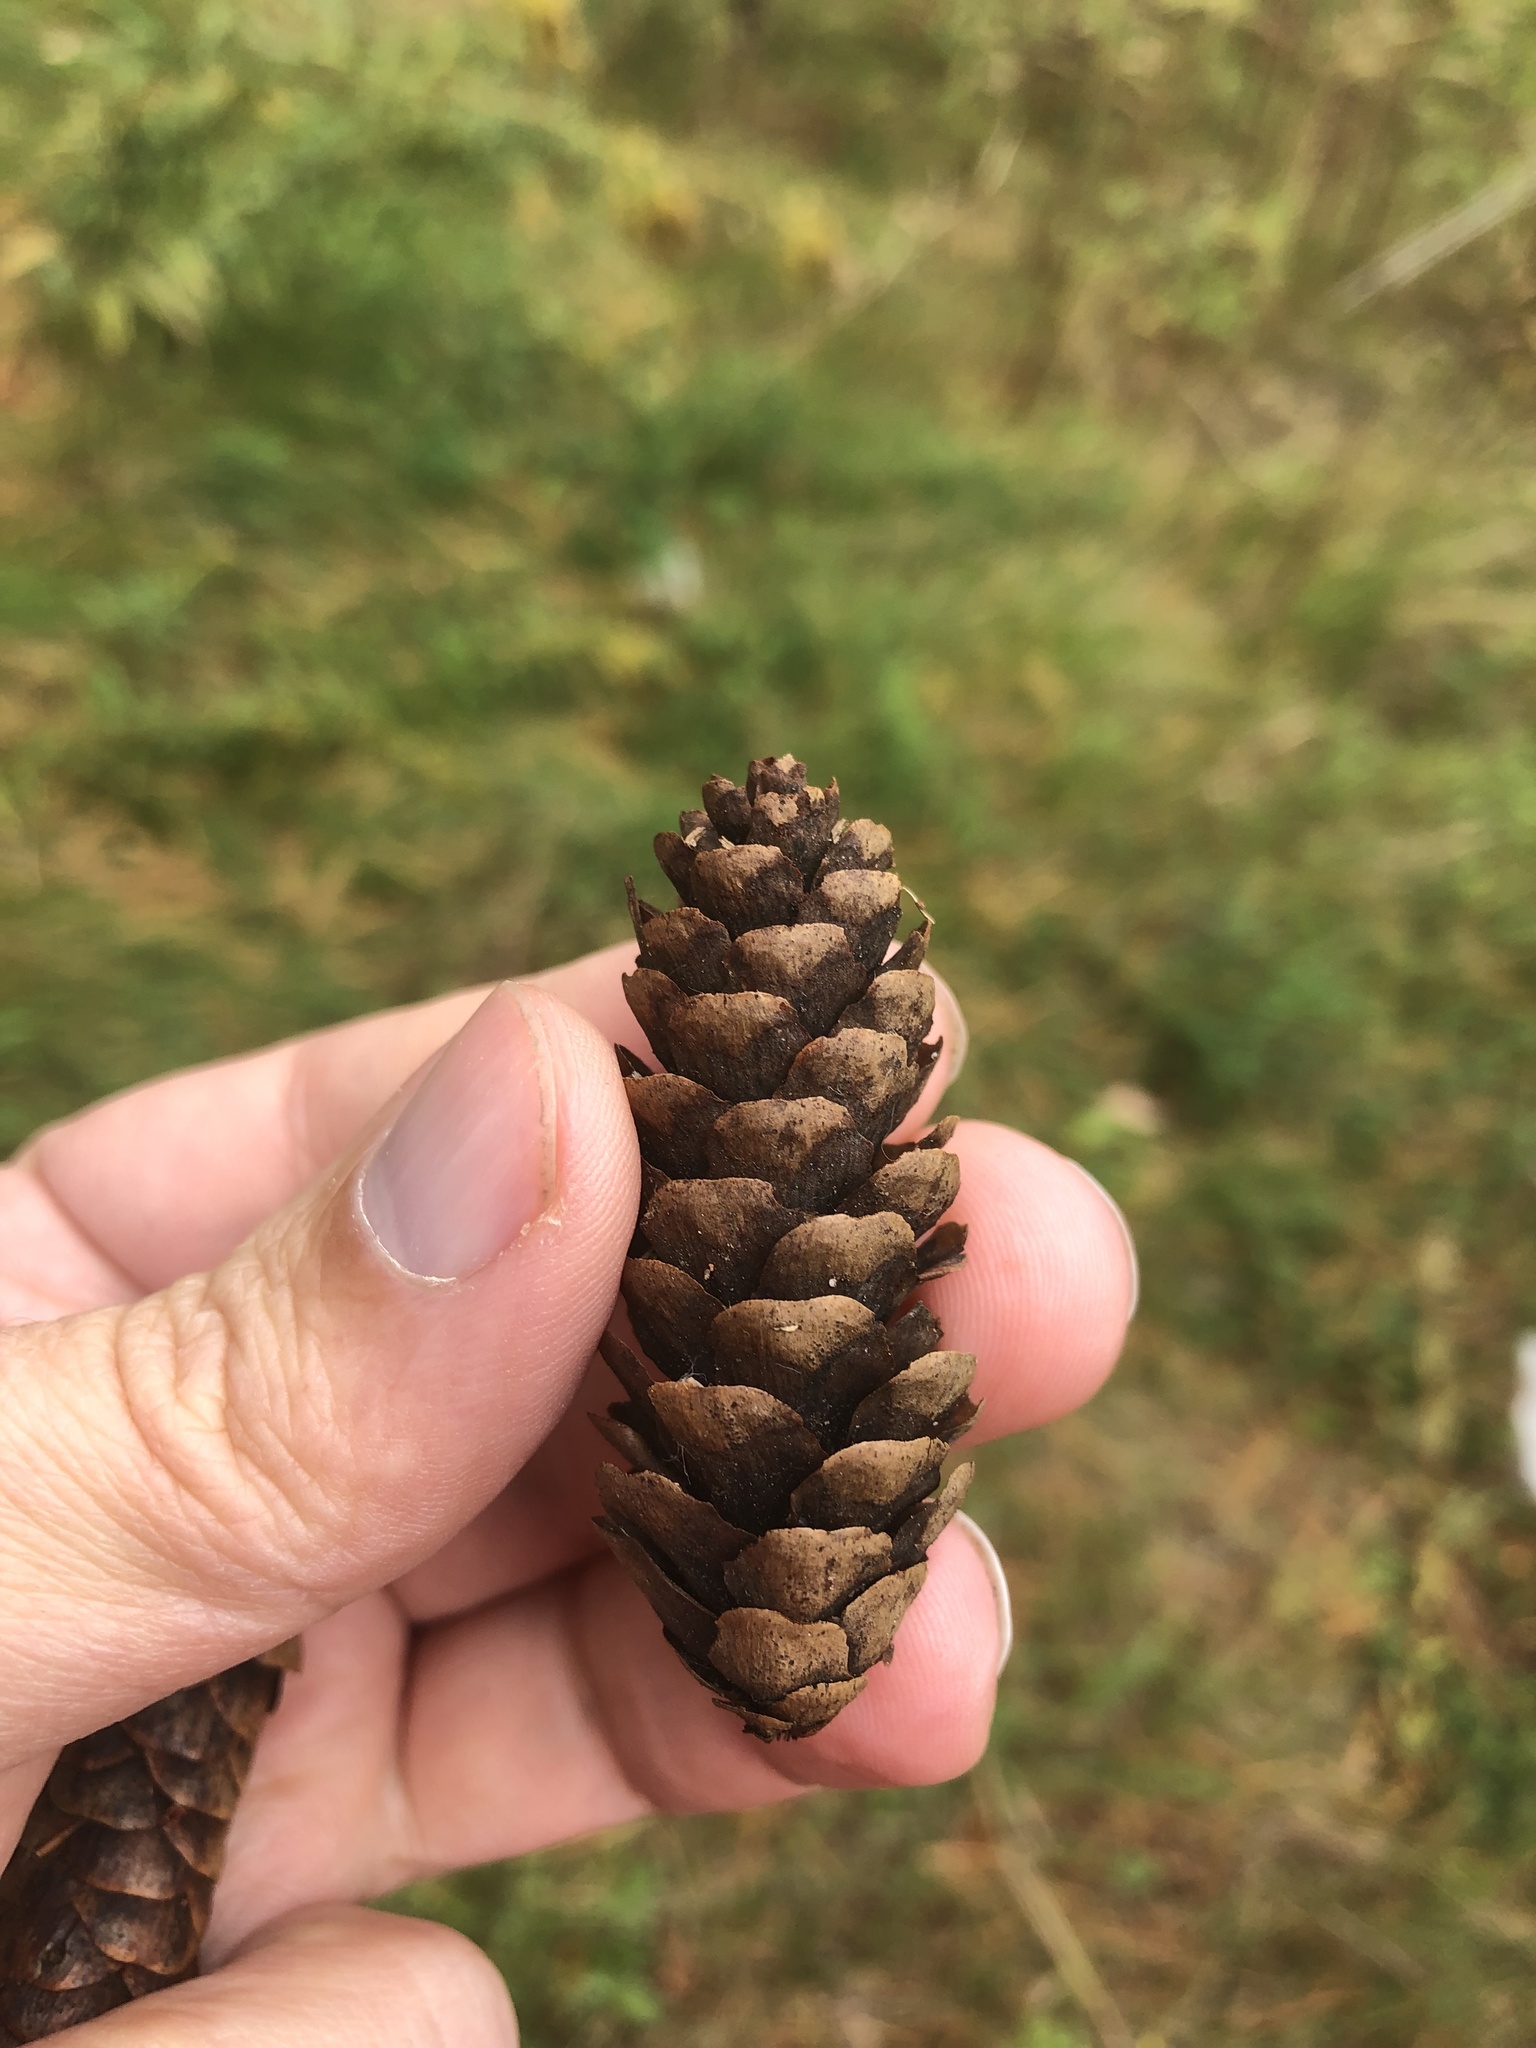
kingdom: Plantae
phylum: Tracheophyta
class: Pinopsida
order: Pinales
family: Pinaceae
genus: Picea
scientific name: Picea glauca
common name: White spruce
